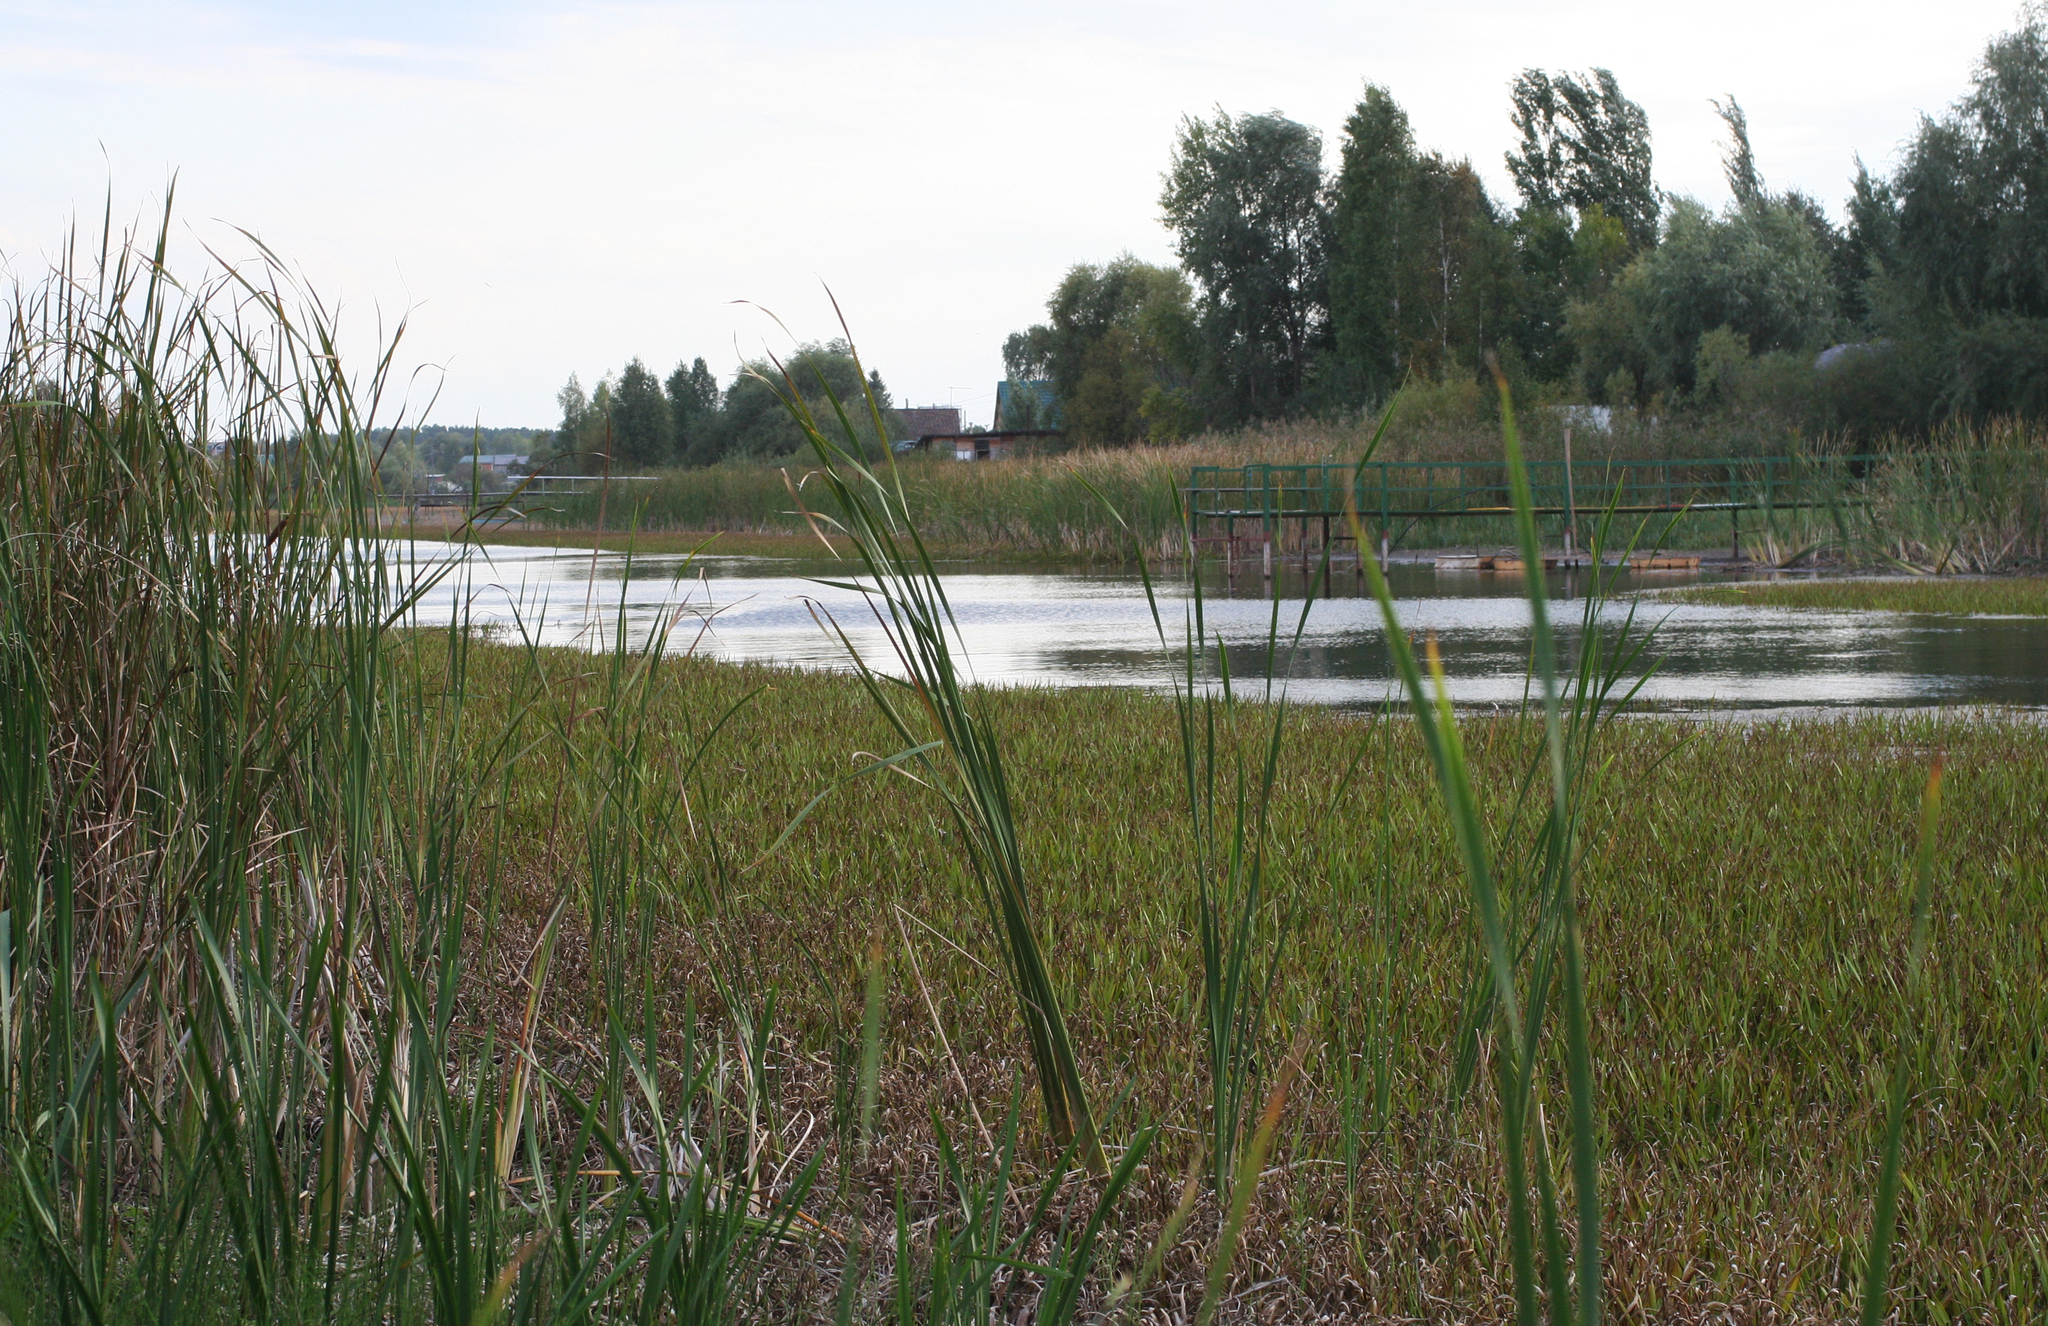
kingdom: Plantae
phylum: Tracheophyta
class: Liliopsida
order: Alismatales
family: Hydrocharitaceae
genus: Stratiotes
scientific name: Stratiotes aloides
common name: Water-soldier
